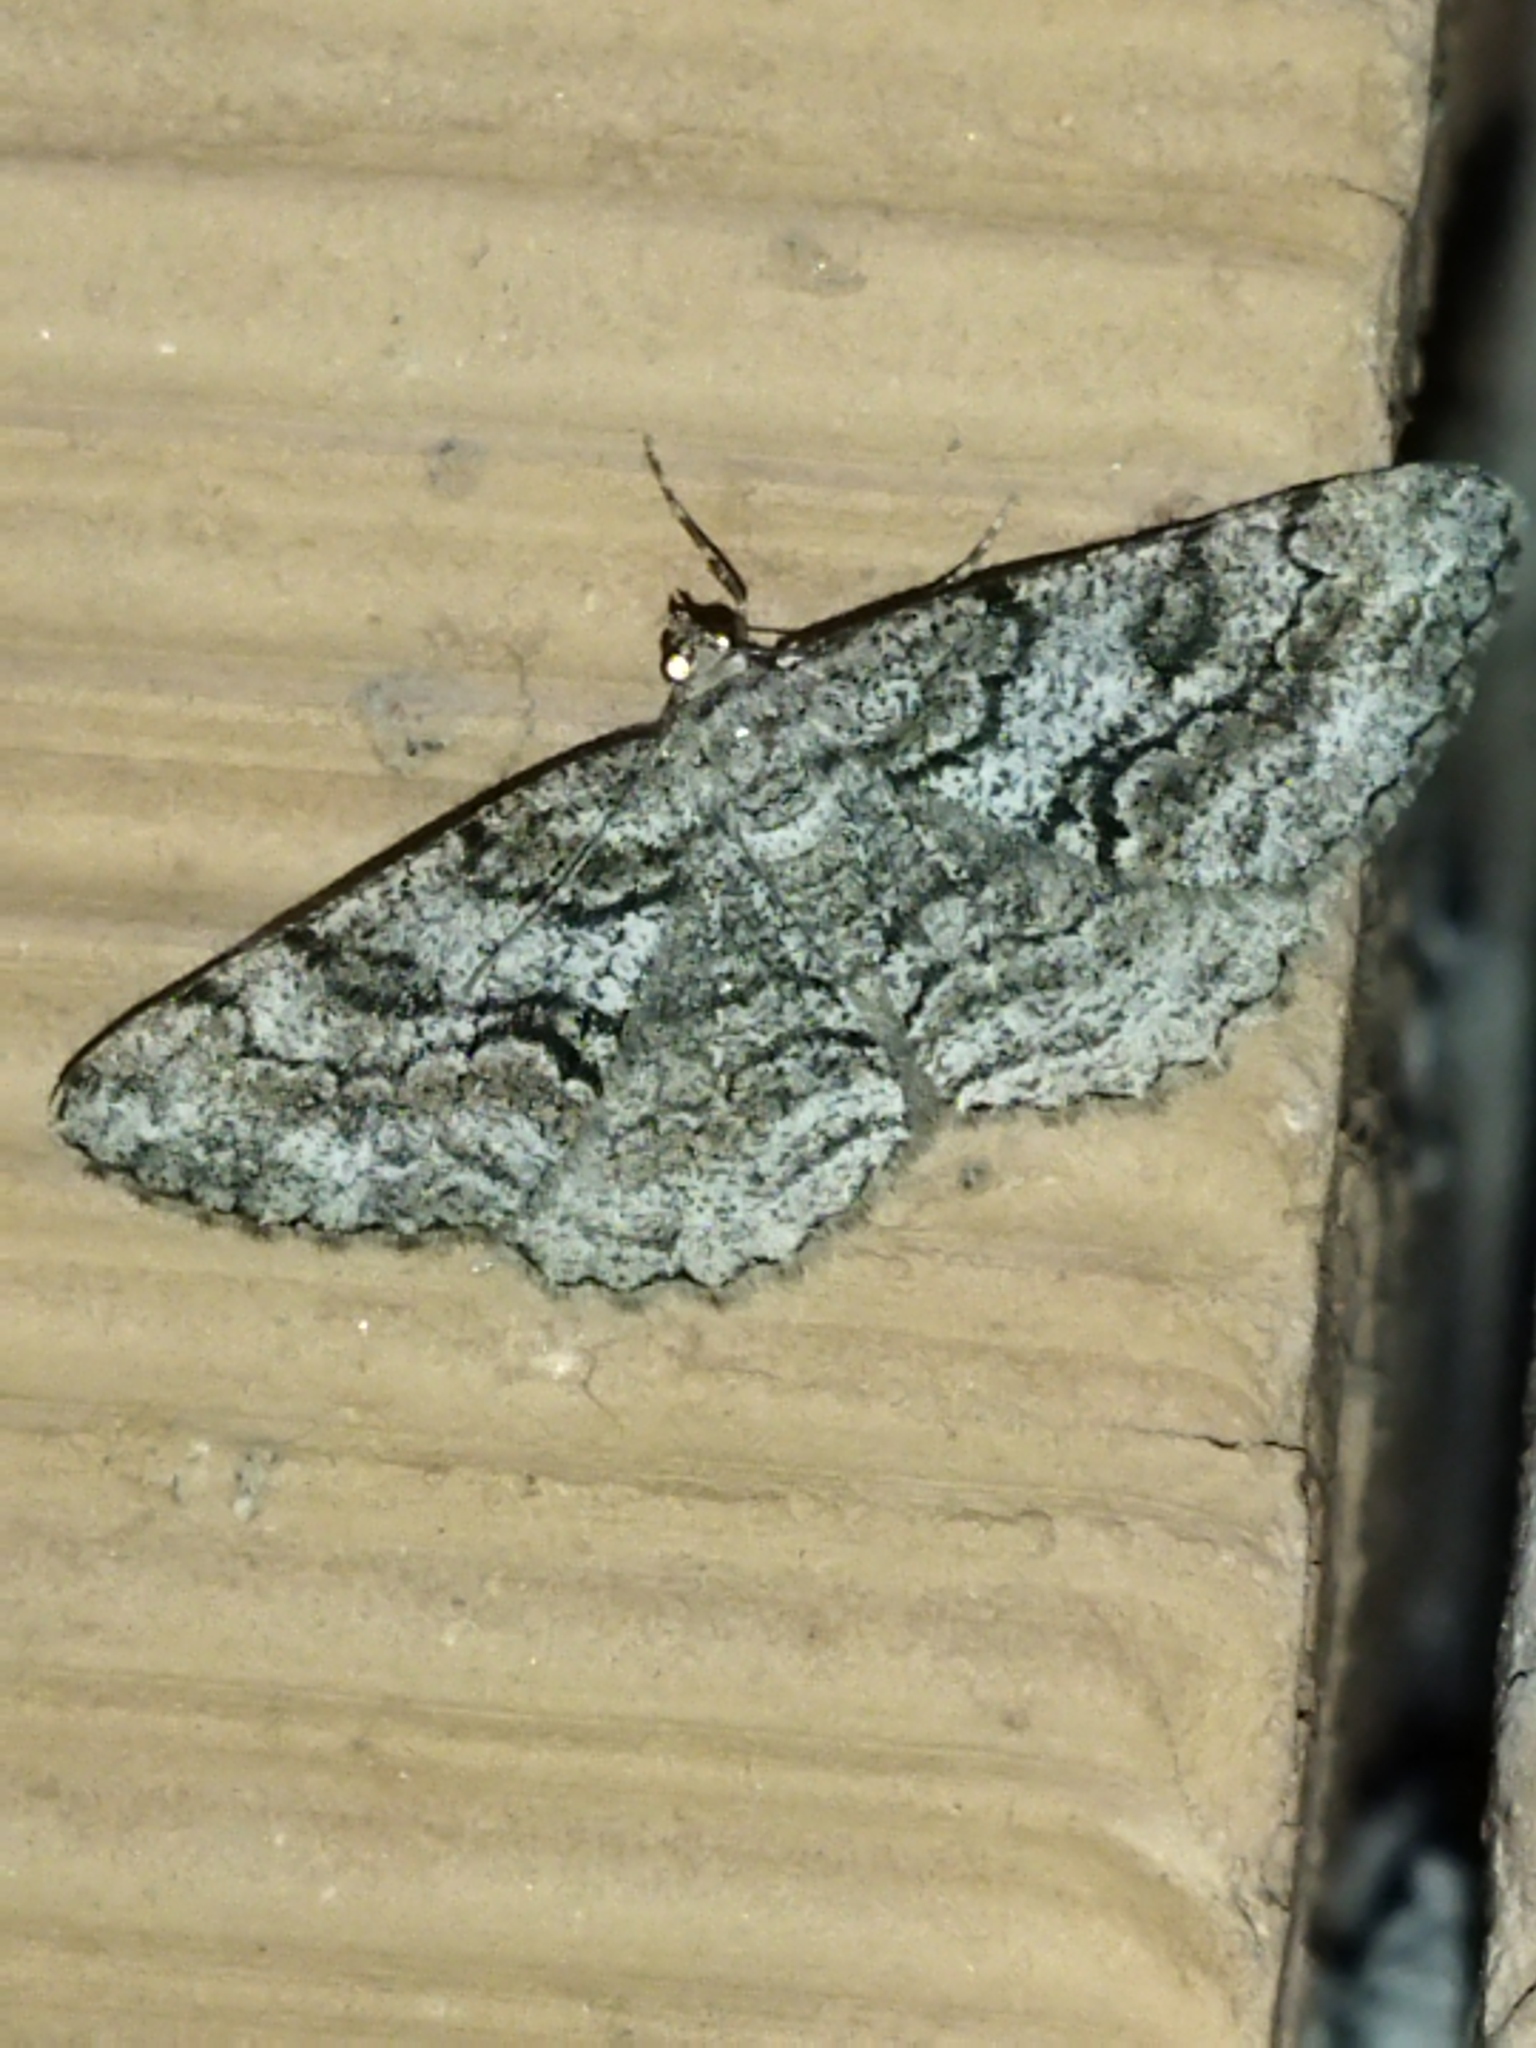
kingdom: Animalia
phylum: Arthropoda
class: Insecta
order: Lepidoptera
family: Geometridae
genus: Peribatodes
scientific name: Peribatodes secundaria
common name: Feathered beauty
